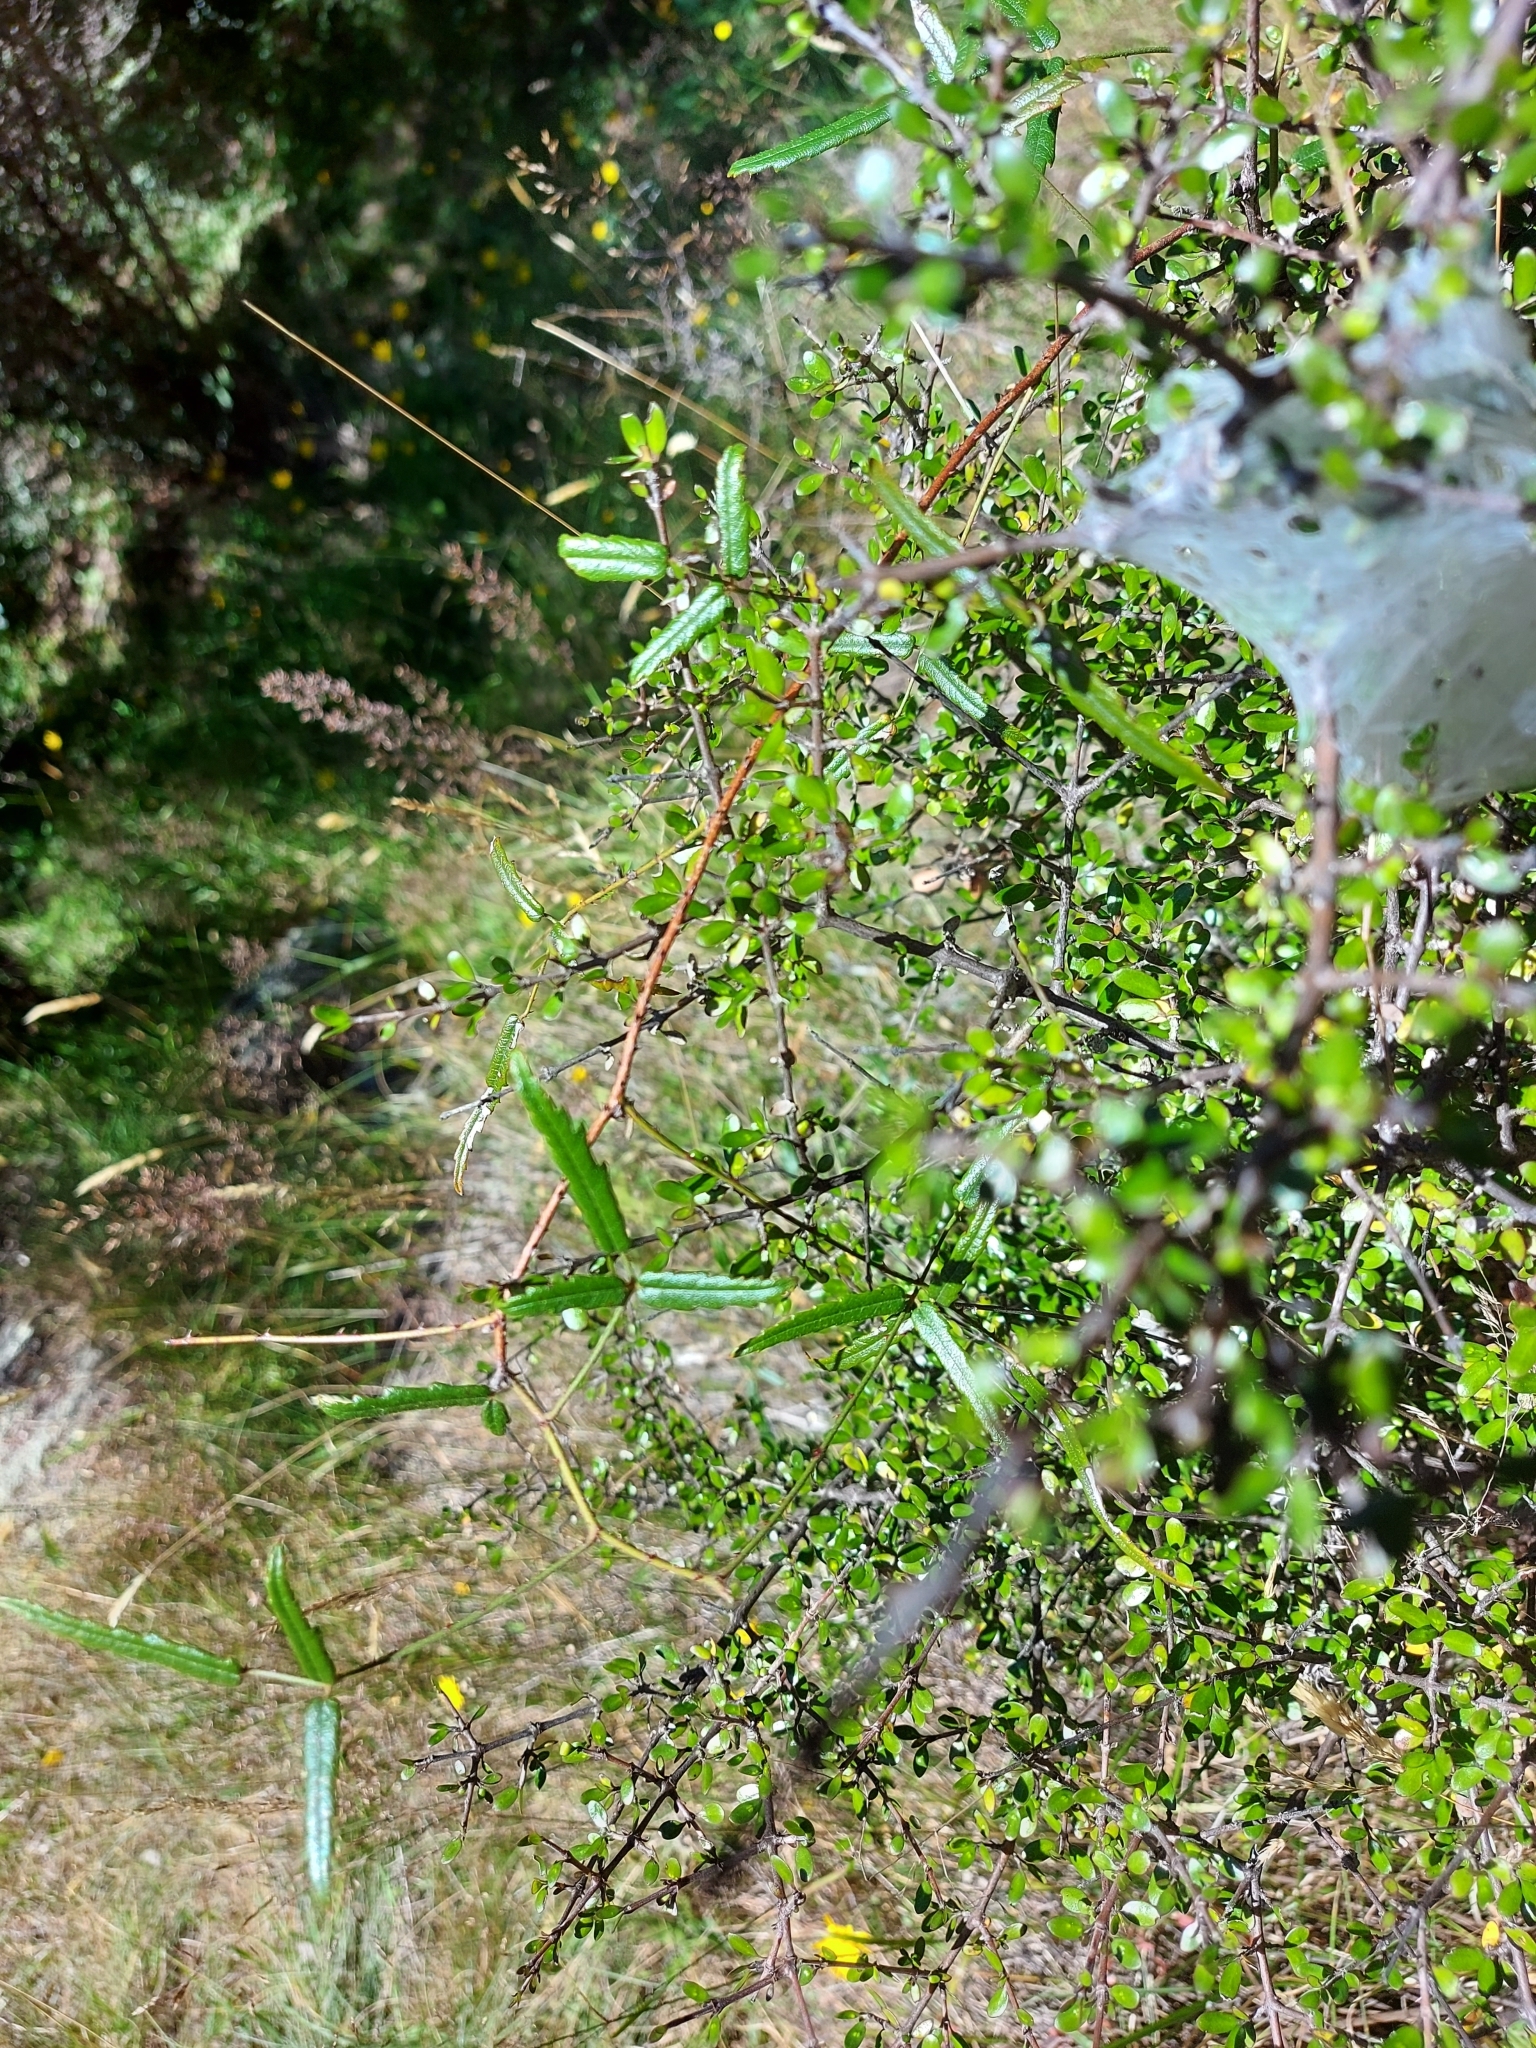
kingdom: Plantae
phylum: Tracheophyta
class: Magnoliopsida
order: Rosales
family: Rosaceae
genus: Rubus
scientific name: Rubus schmidelioides
